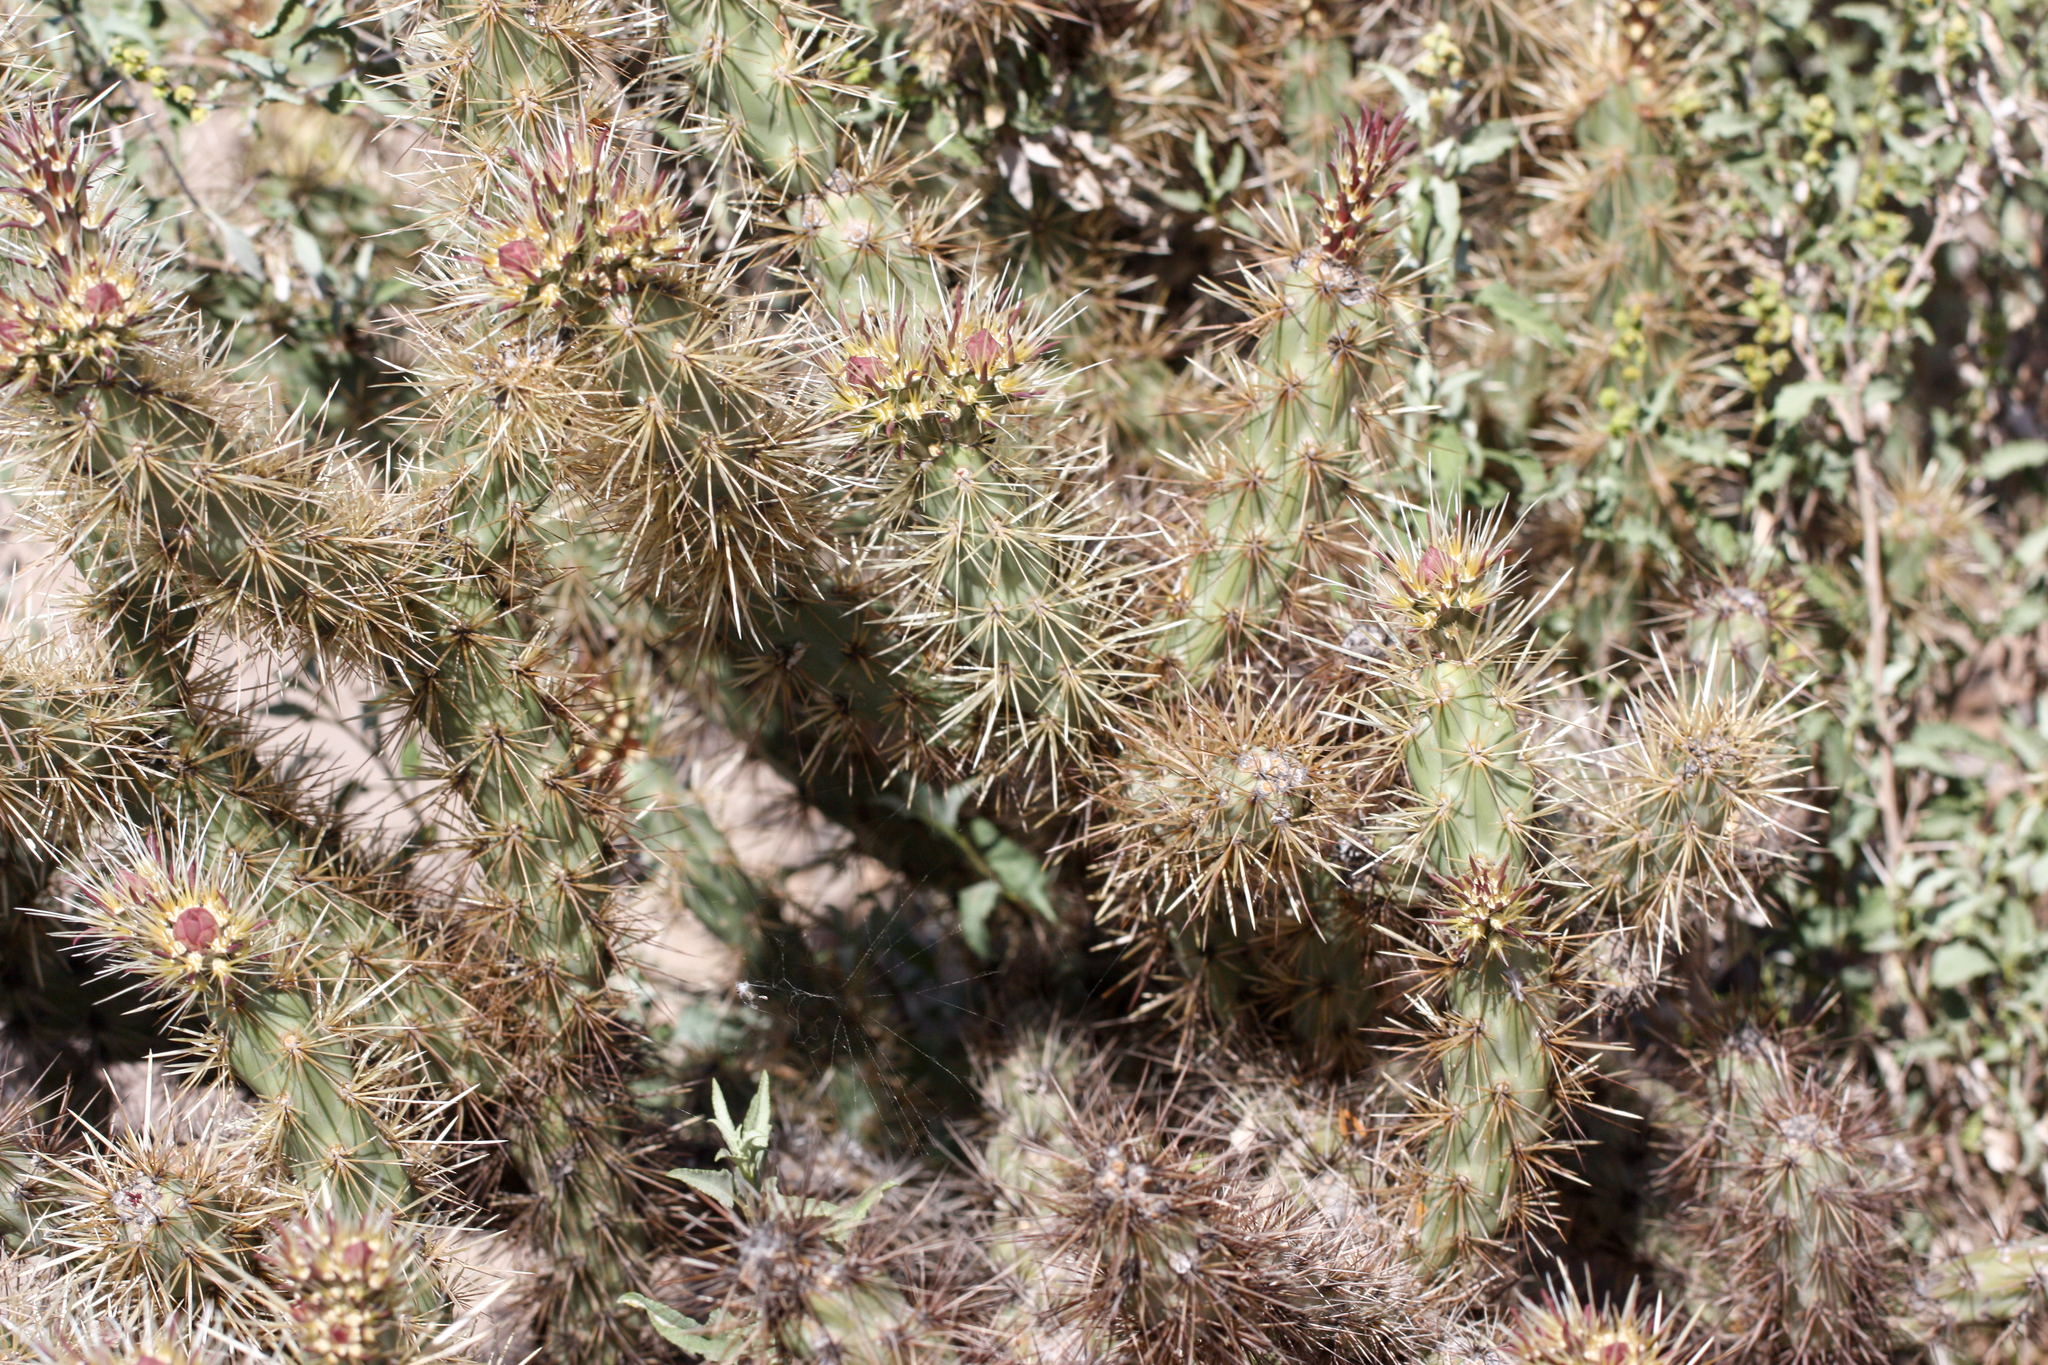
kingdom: Plantae
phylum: Tracheophyta
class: Magnoliopsida
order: Caryophyllales
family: Cactaceae
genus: Cylindropuntia
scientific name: Cylindropuntia acanthocarpa
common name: Buckhorn cholla
